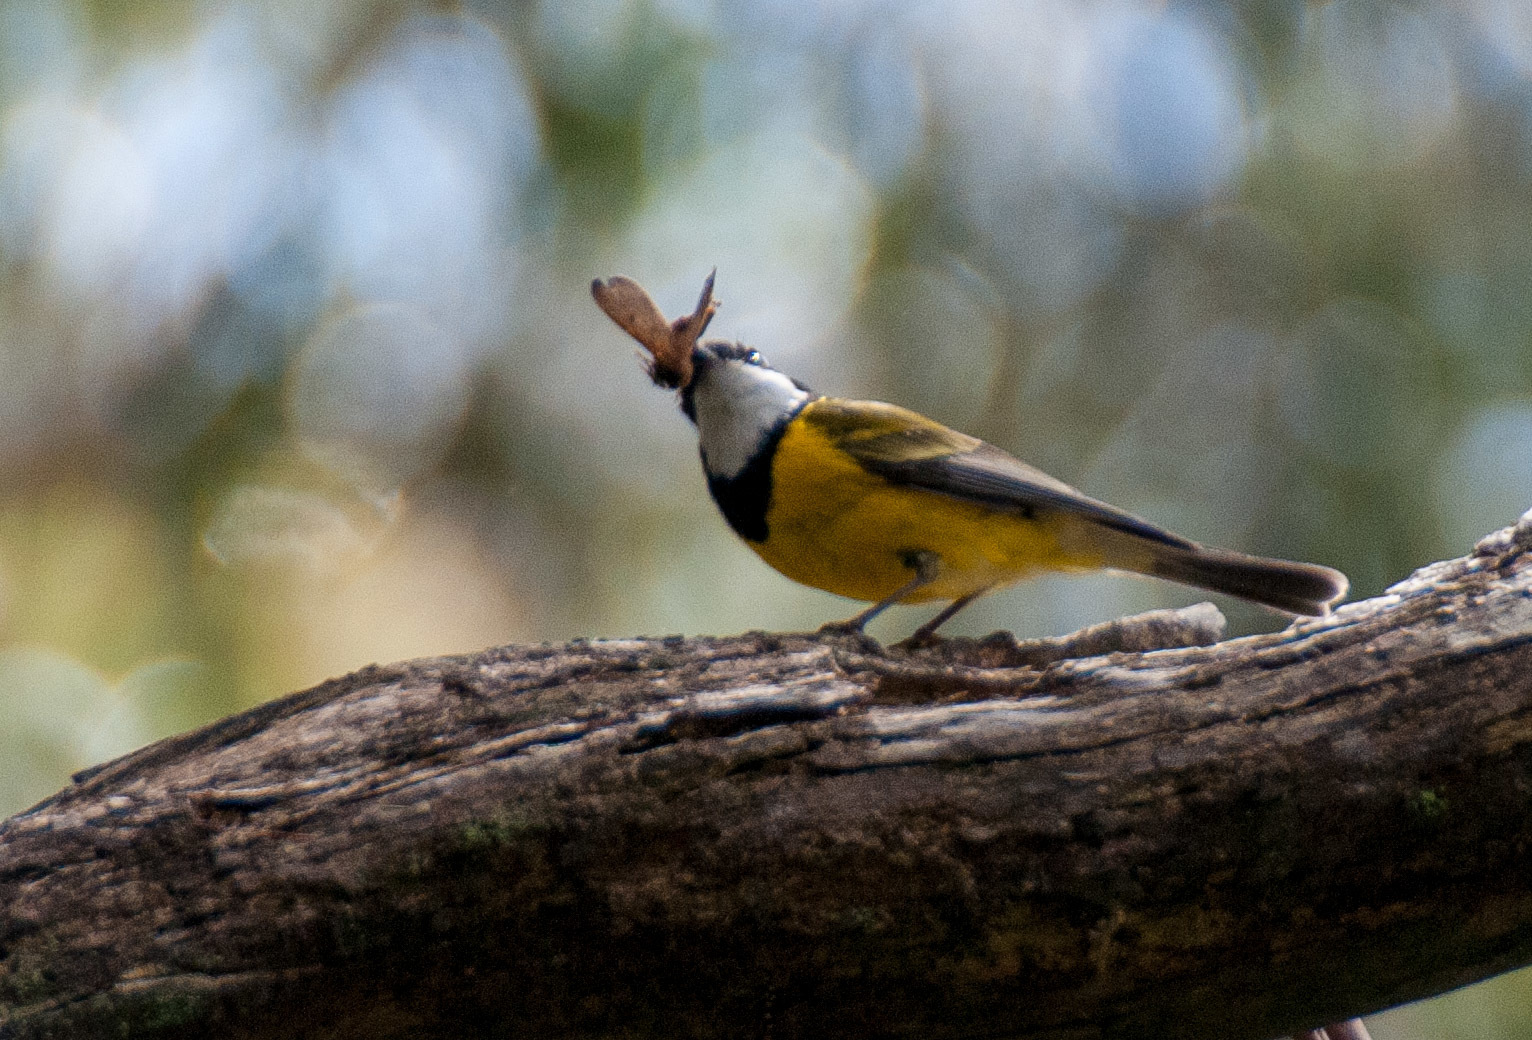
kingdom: Animalia
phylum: Chordata
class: Aves
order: Passeriformes
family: Pachycephalidae
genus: Pachycephala
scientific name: Pachycephala pectoralis
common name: Australian golden whistler
